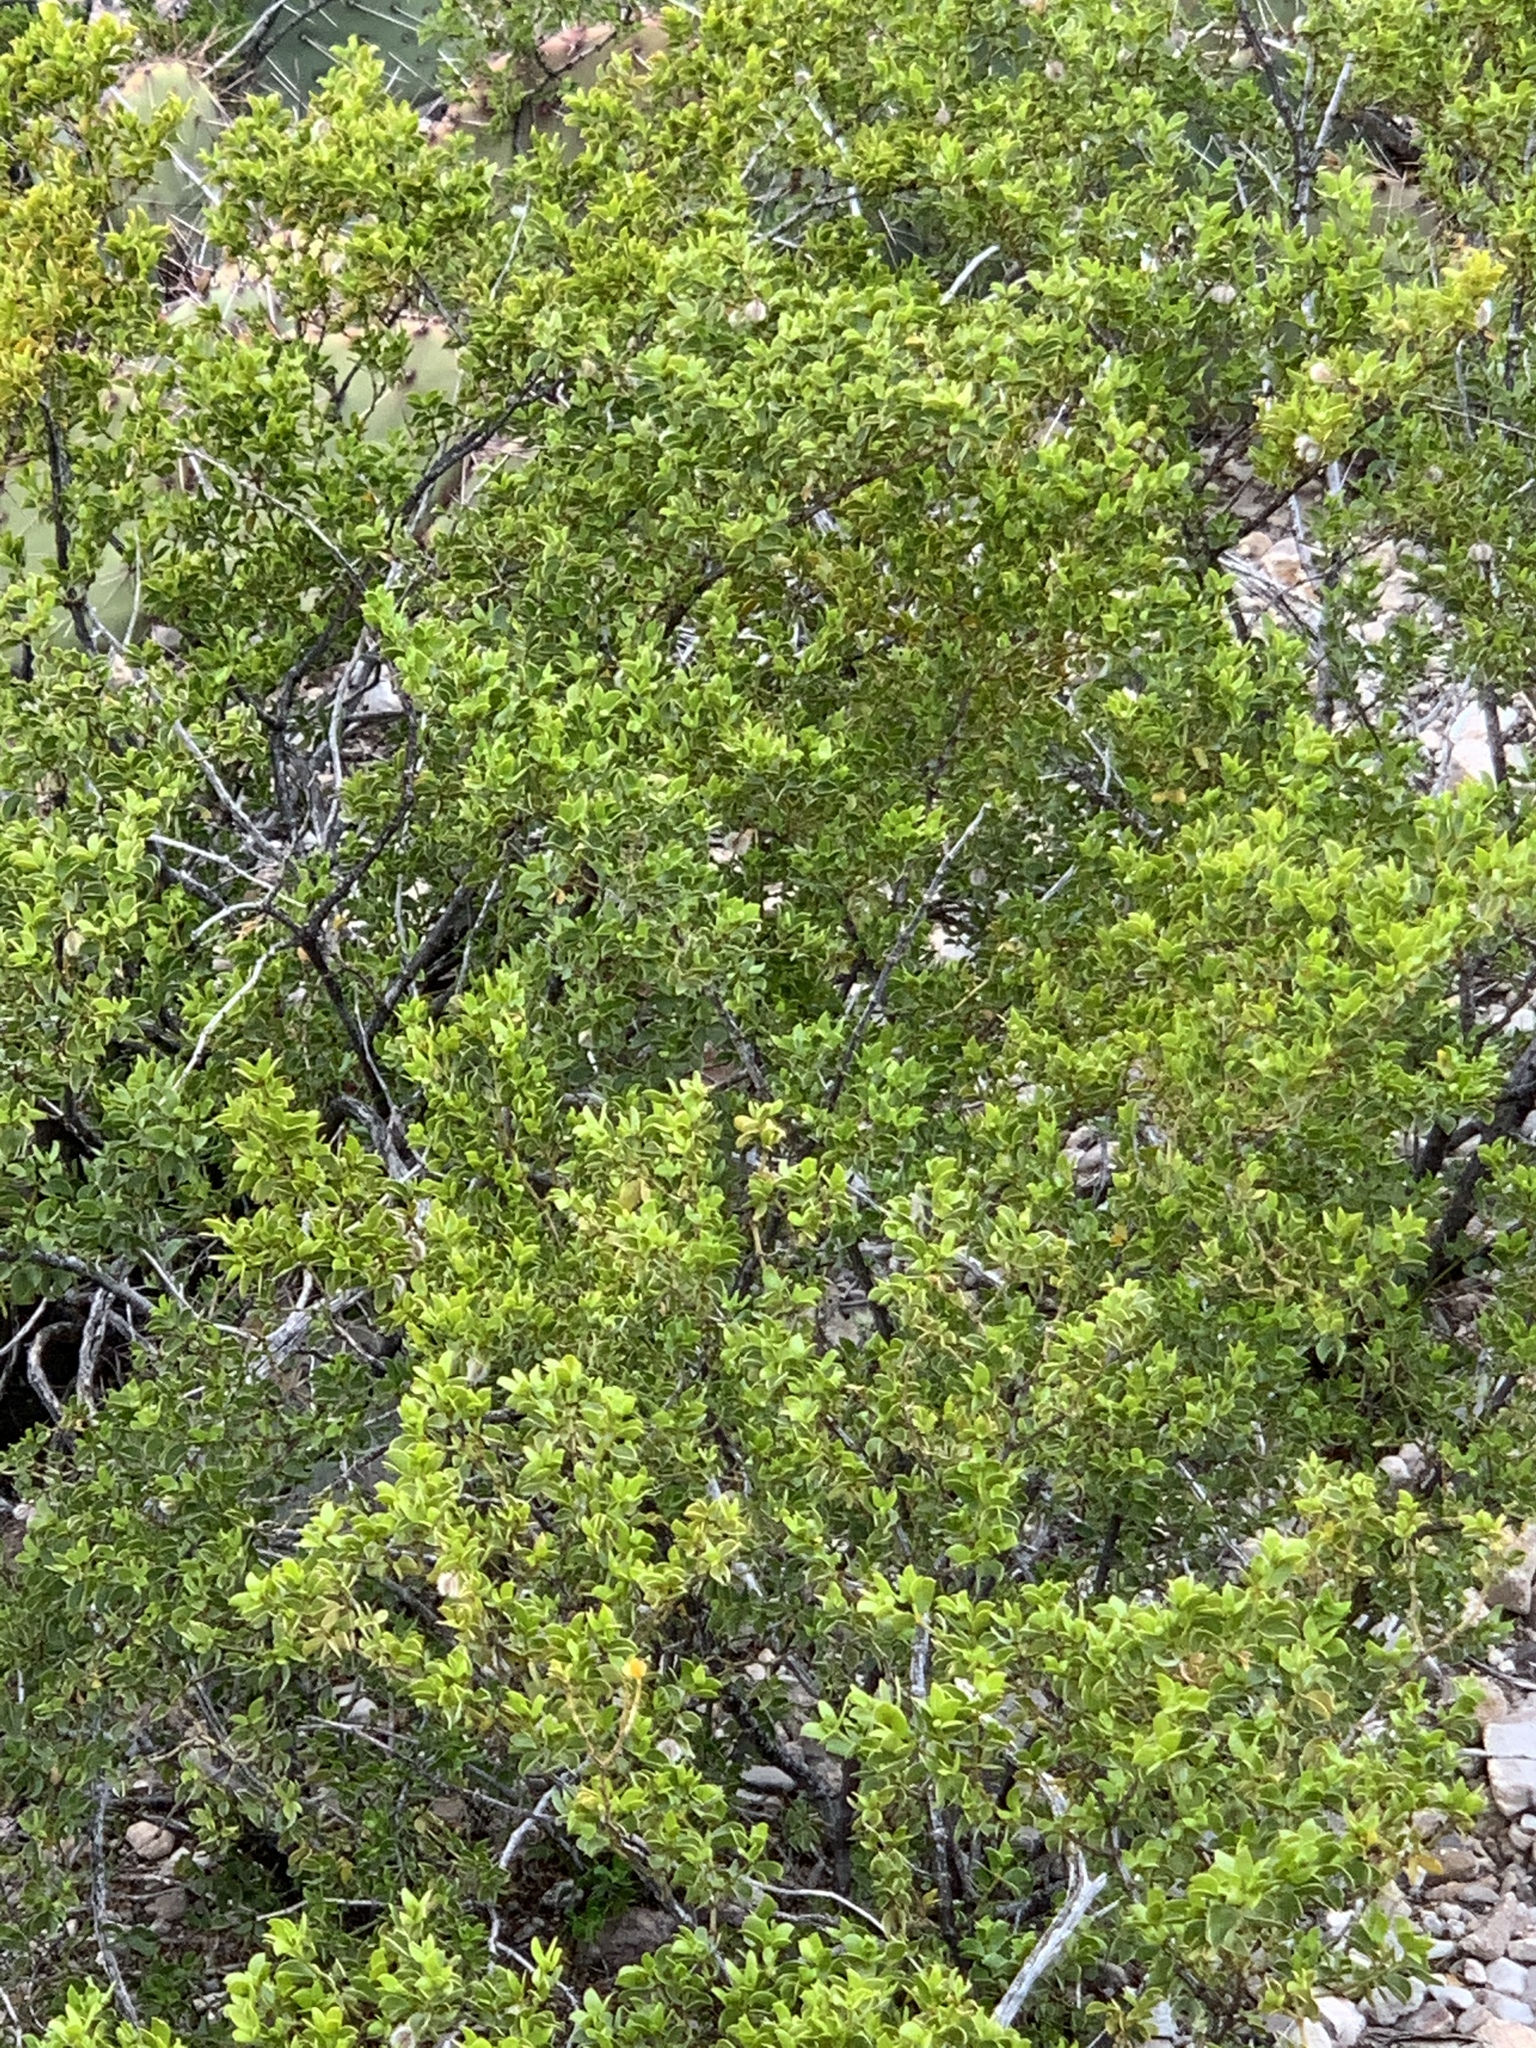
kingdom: Plantae
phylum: Tracheophyta
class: Magnoliopsida
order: Zygophyllales
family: Zygophyllaceae
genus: Larrea
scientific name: Larrea tridentata
